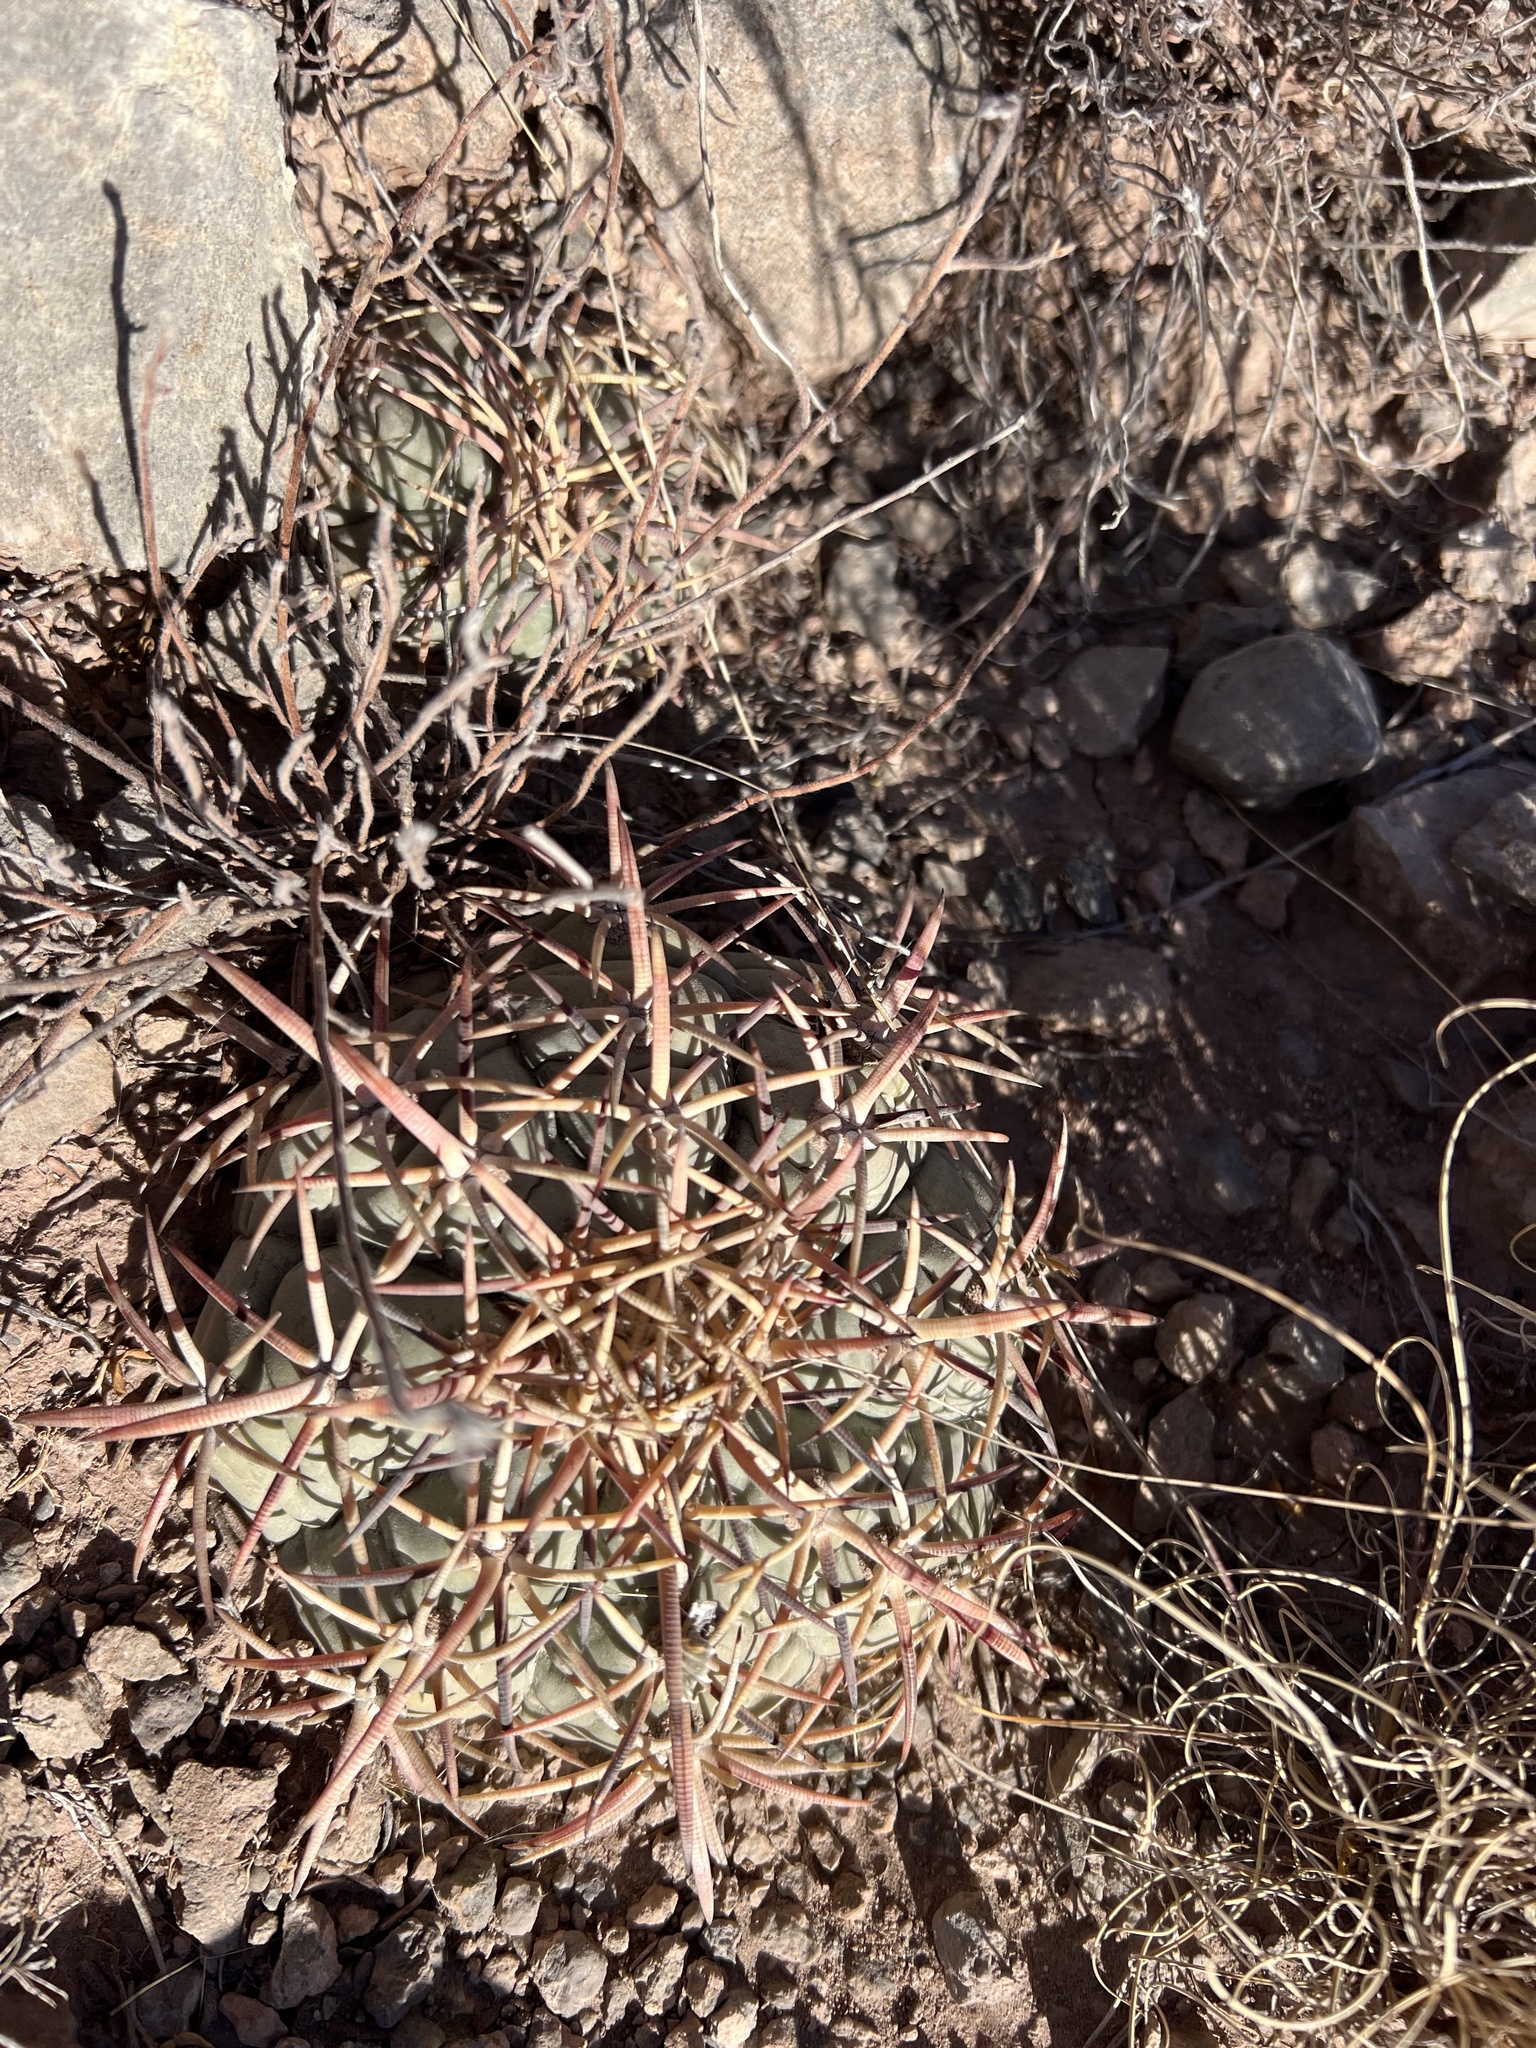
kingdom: Plantae
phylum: Tracheophyta
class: Magnoliopsida
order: Caryophyllales
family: Cactaceae
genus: Echinocactus
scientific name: Echinocactus horizonthalonius
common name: Devilshead
